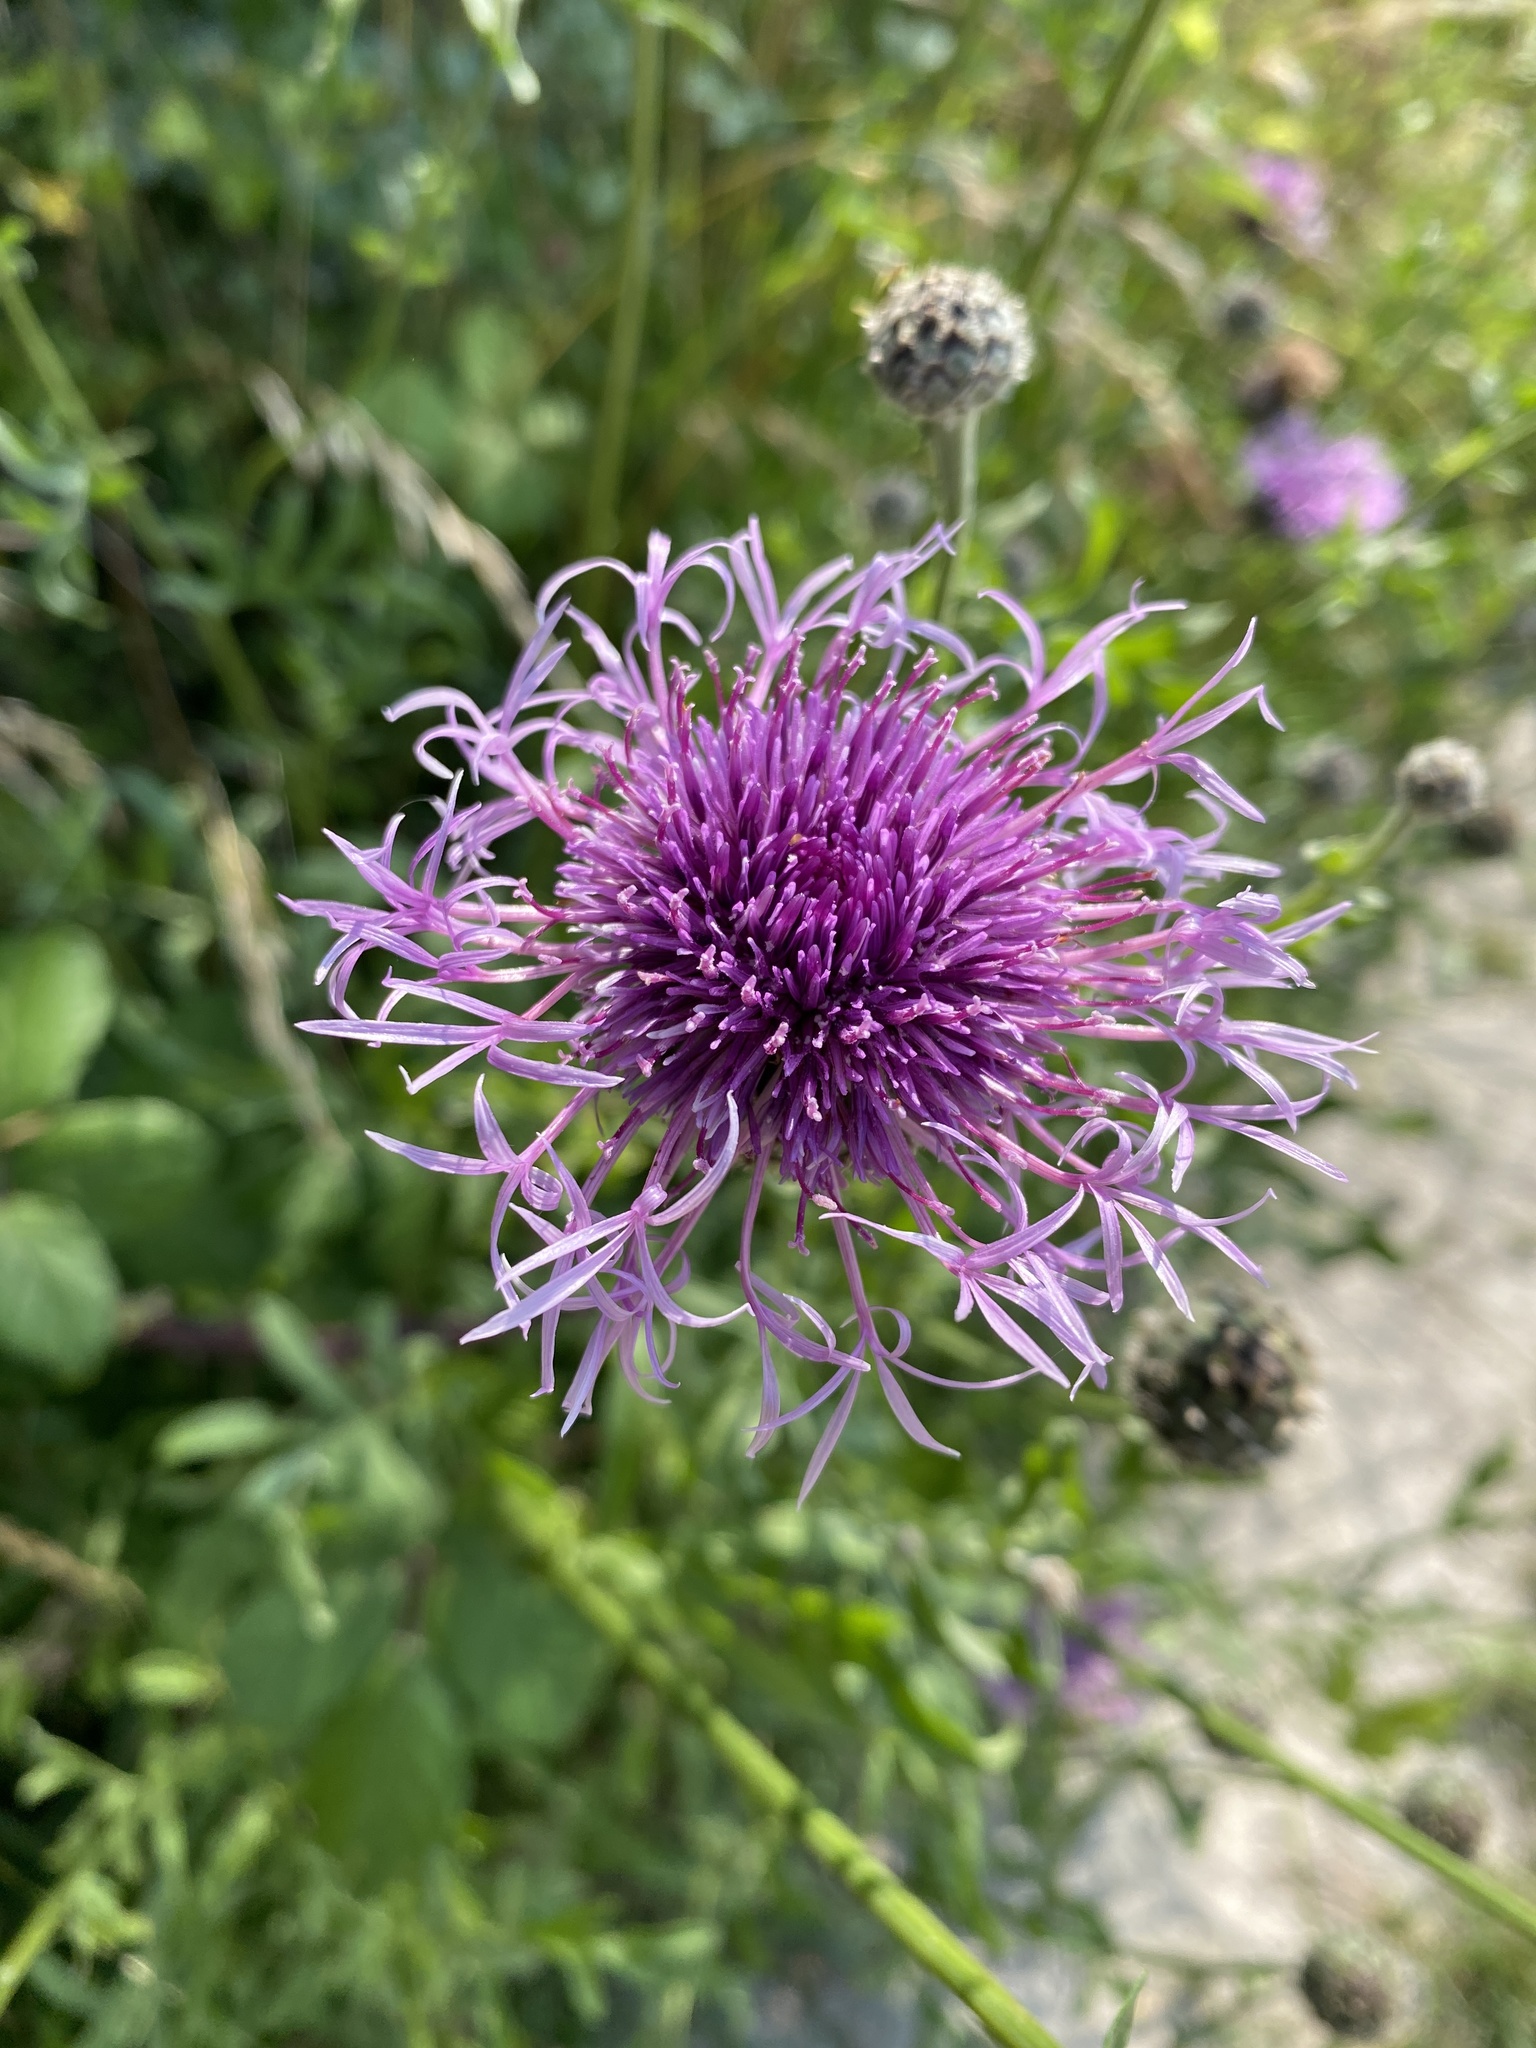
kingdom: Plantae
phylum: Tracheophyta
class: Magnoliopsida
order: Asterales
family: Asteraceae
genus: Centaurea
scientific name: Centaurea scabiosa
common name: Greater knapweed
